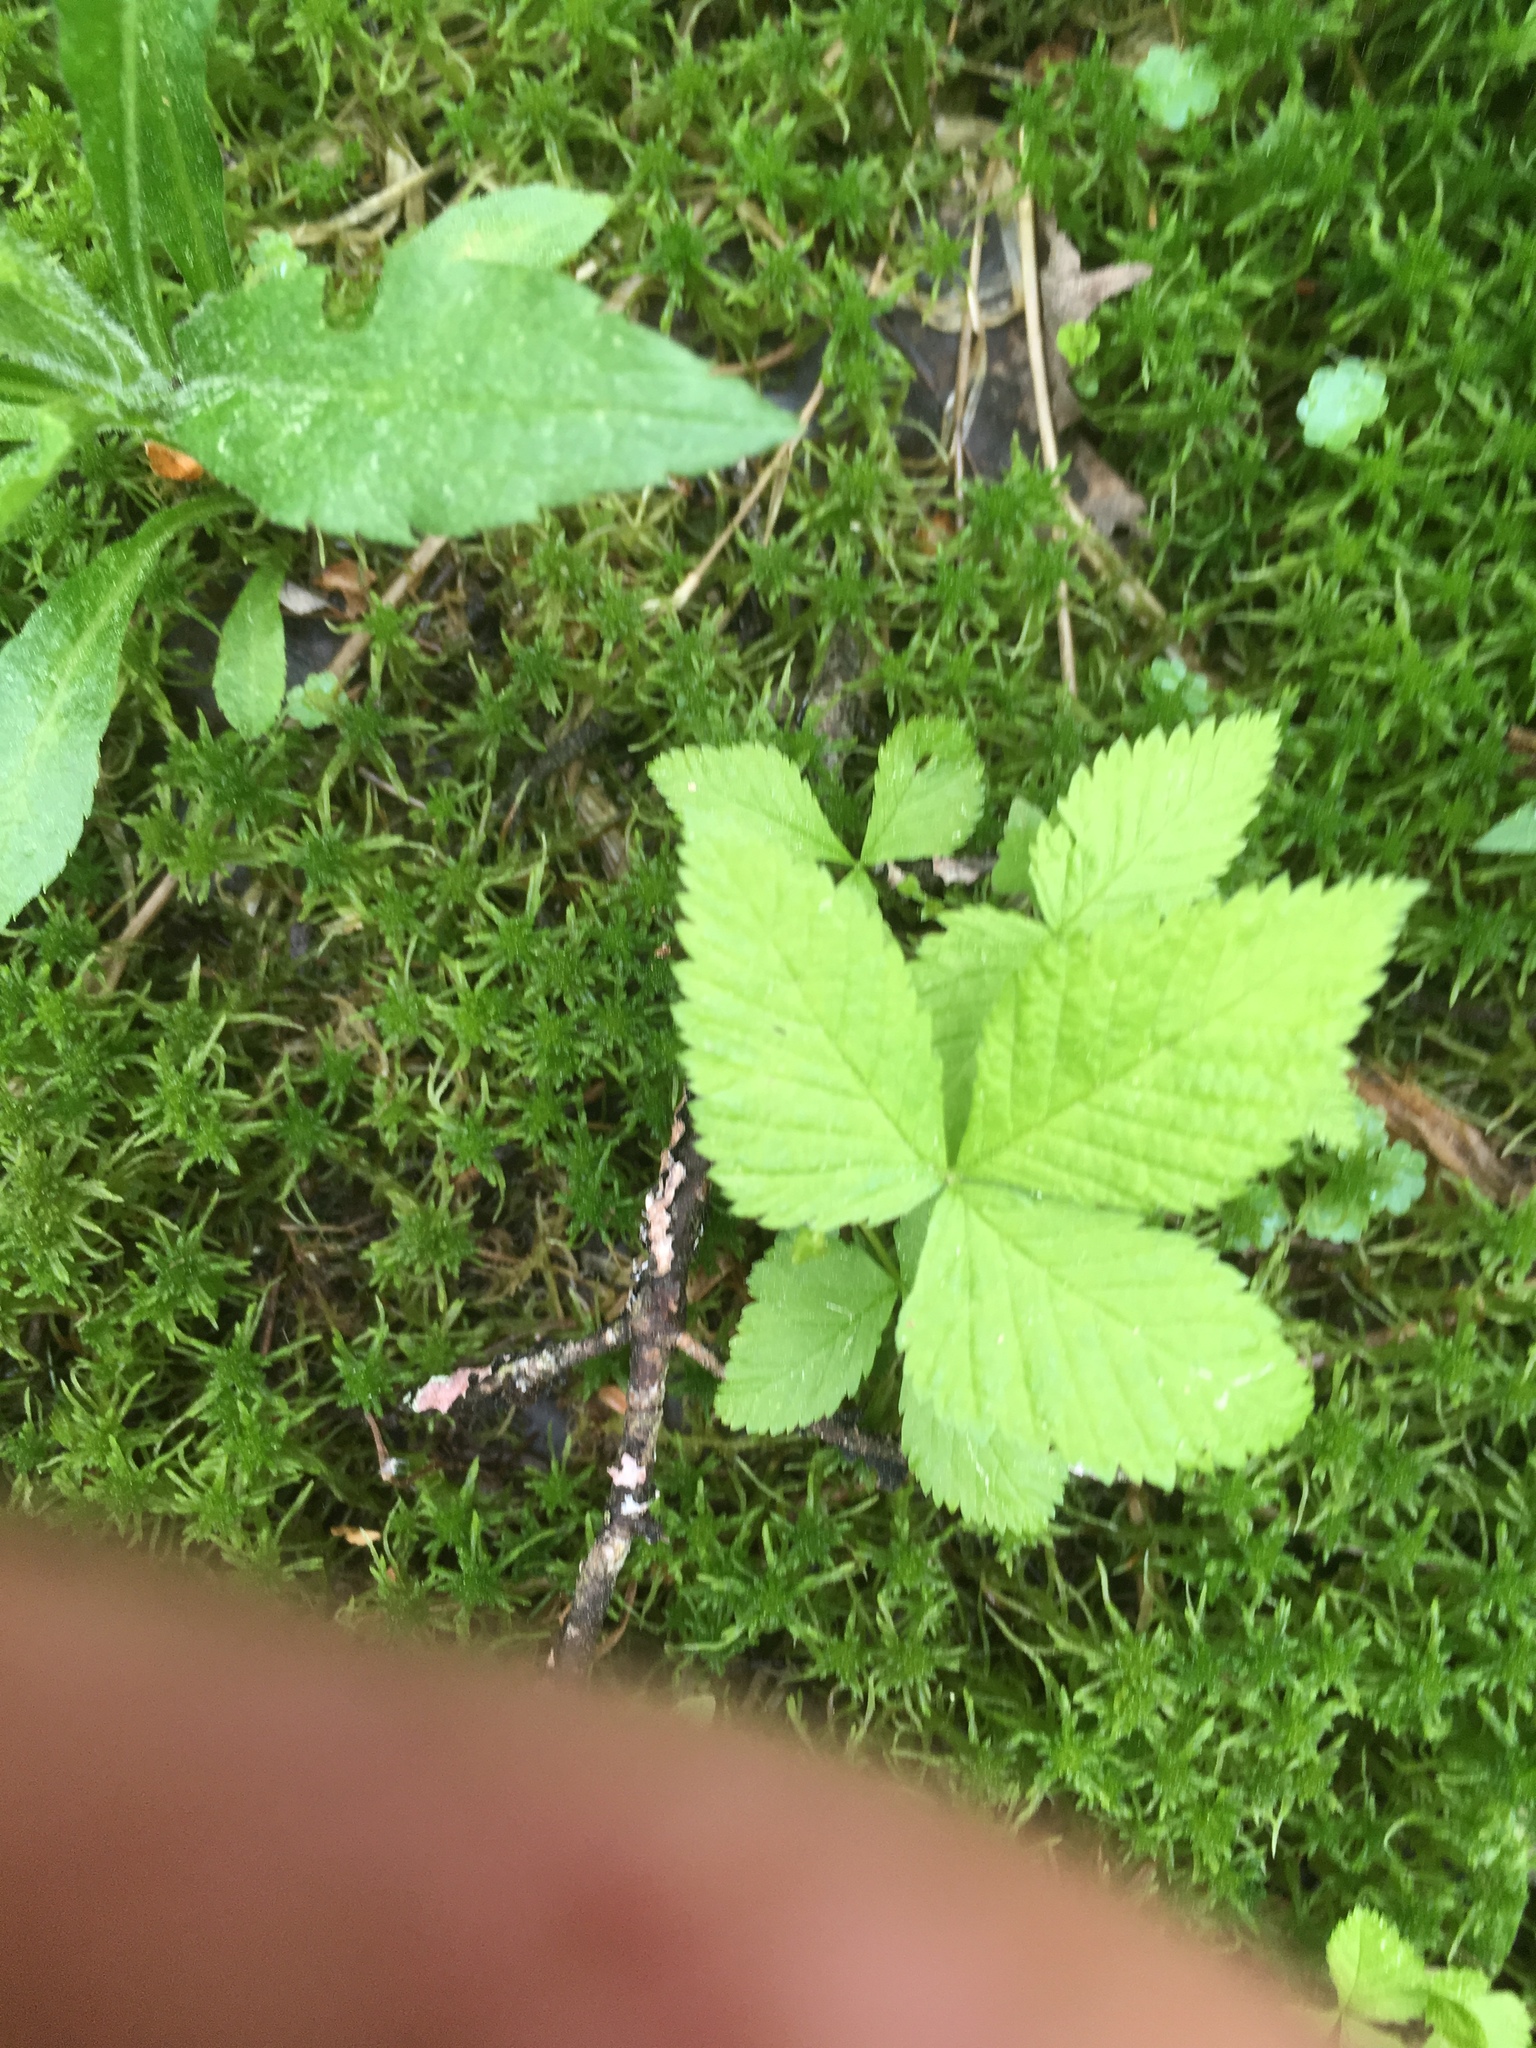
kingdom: Plantae
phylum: Tracheophyta
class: Magnoliopsida
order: Rosales
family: Rosaceae
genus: Rubus
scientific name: Rubus pubescens
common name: Dwarf raspberry
